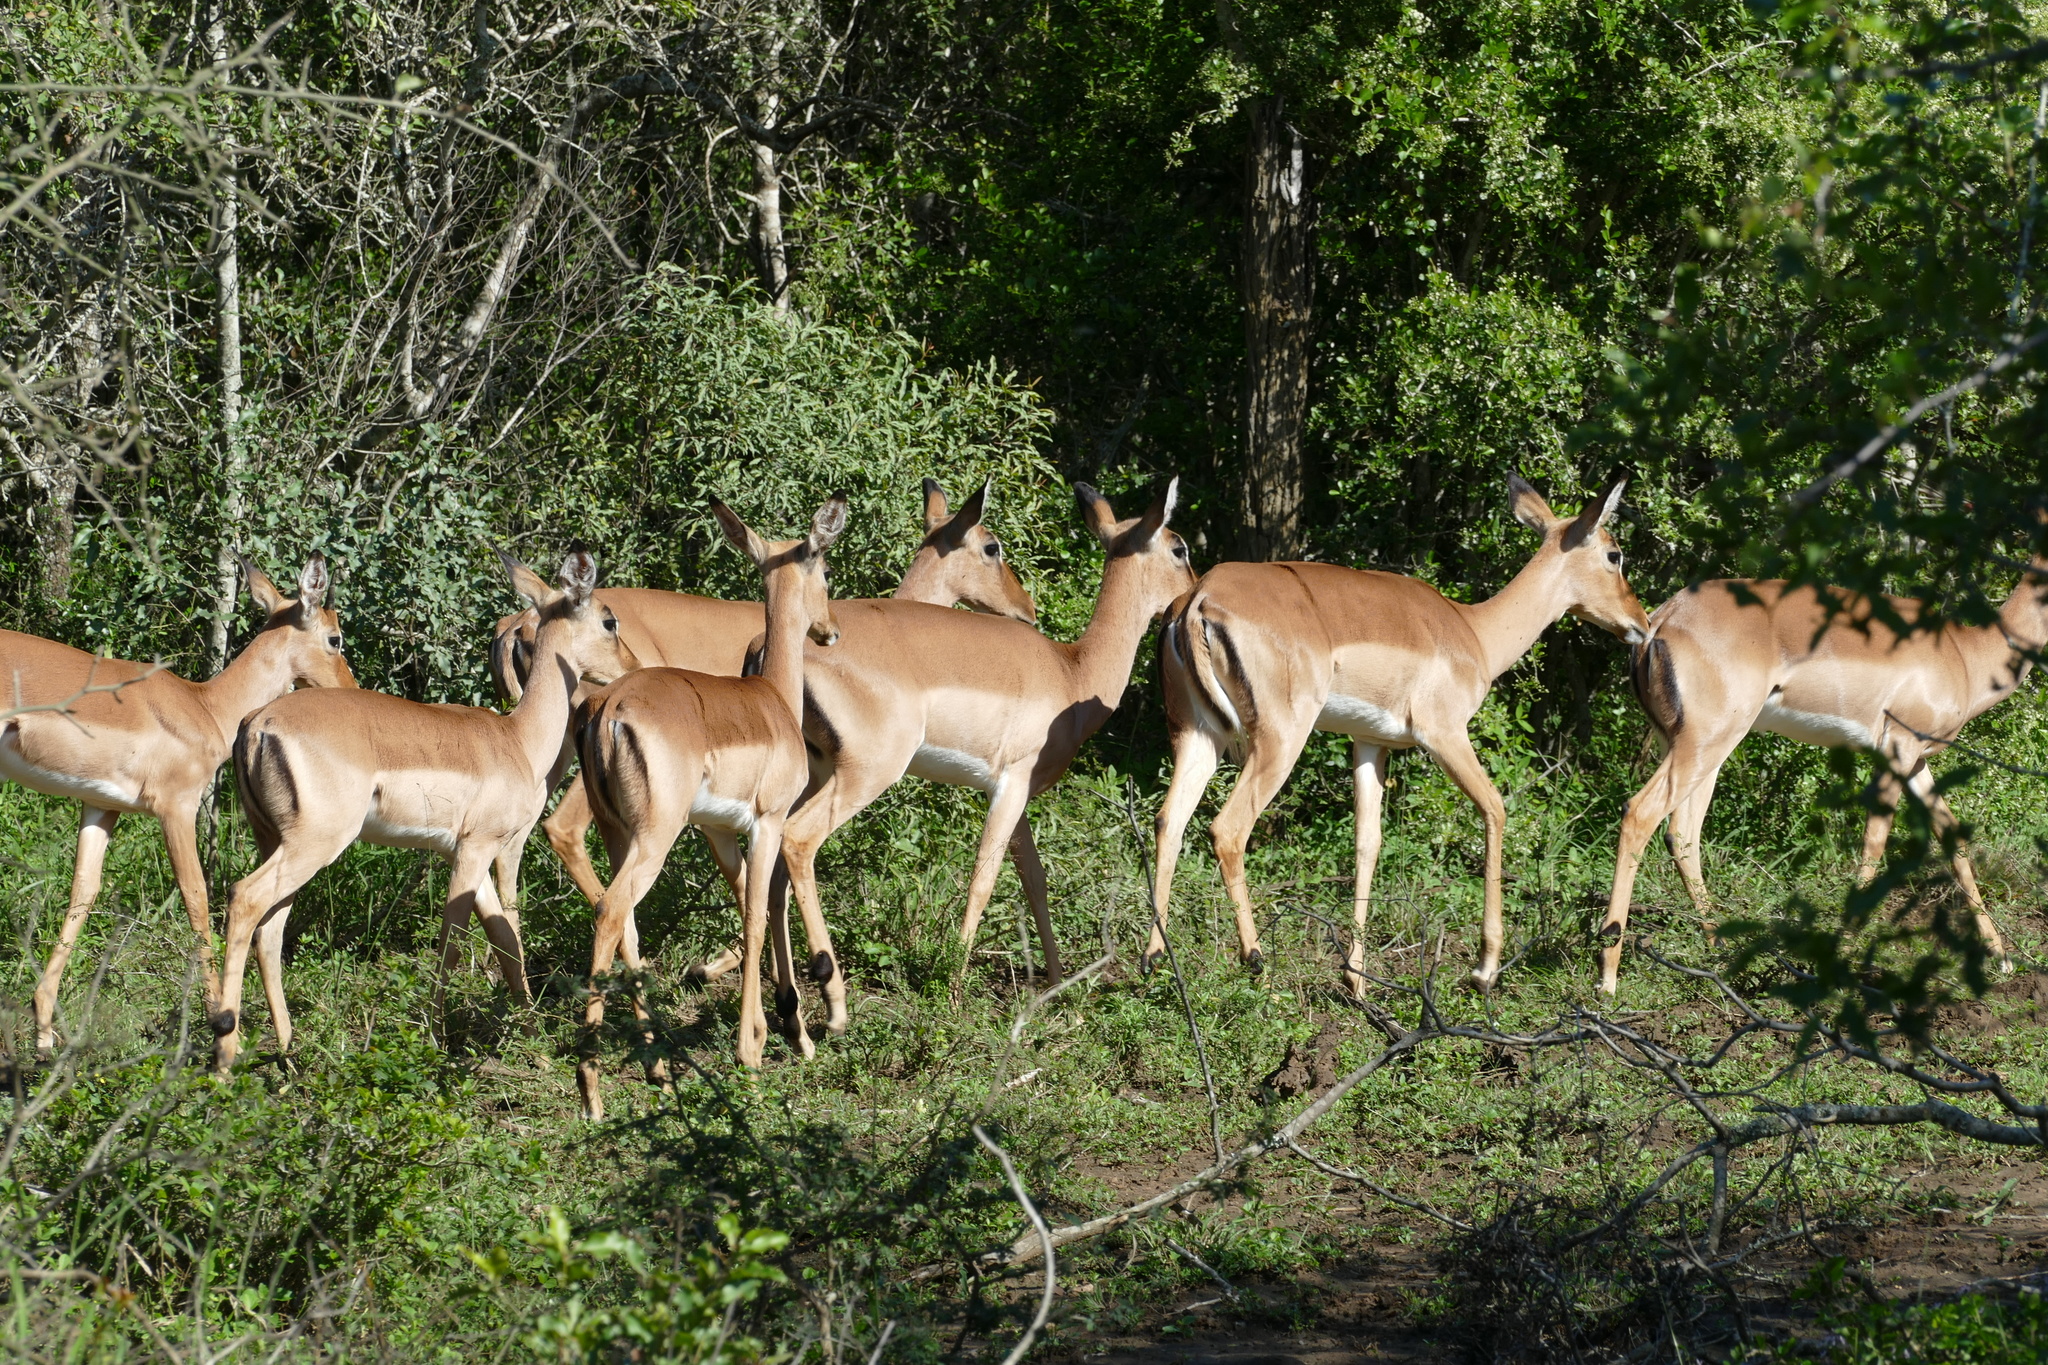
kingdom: Animalia
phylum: Chordata
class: Mammalia
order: Artiodactyla
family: Bovidae
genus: Aepyceros
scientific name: Aepyceros melampus
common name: Impala
